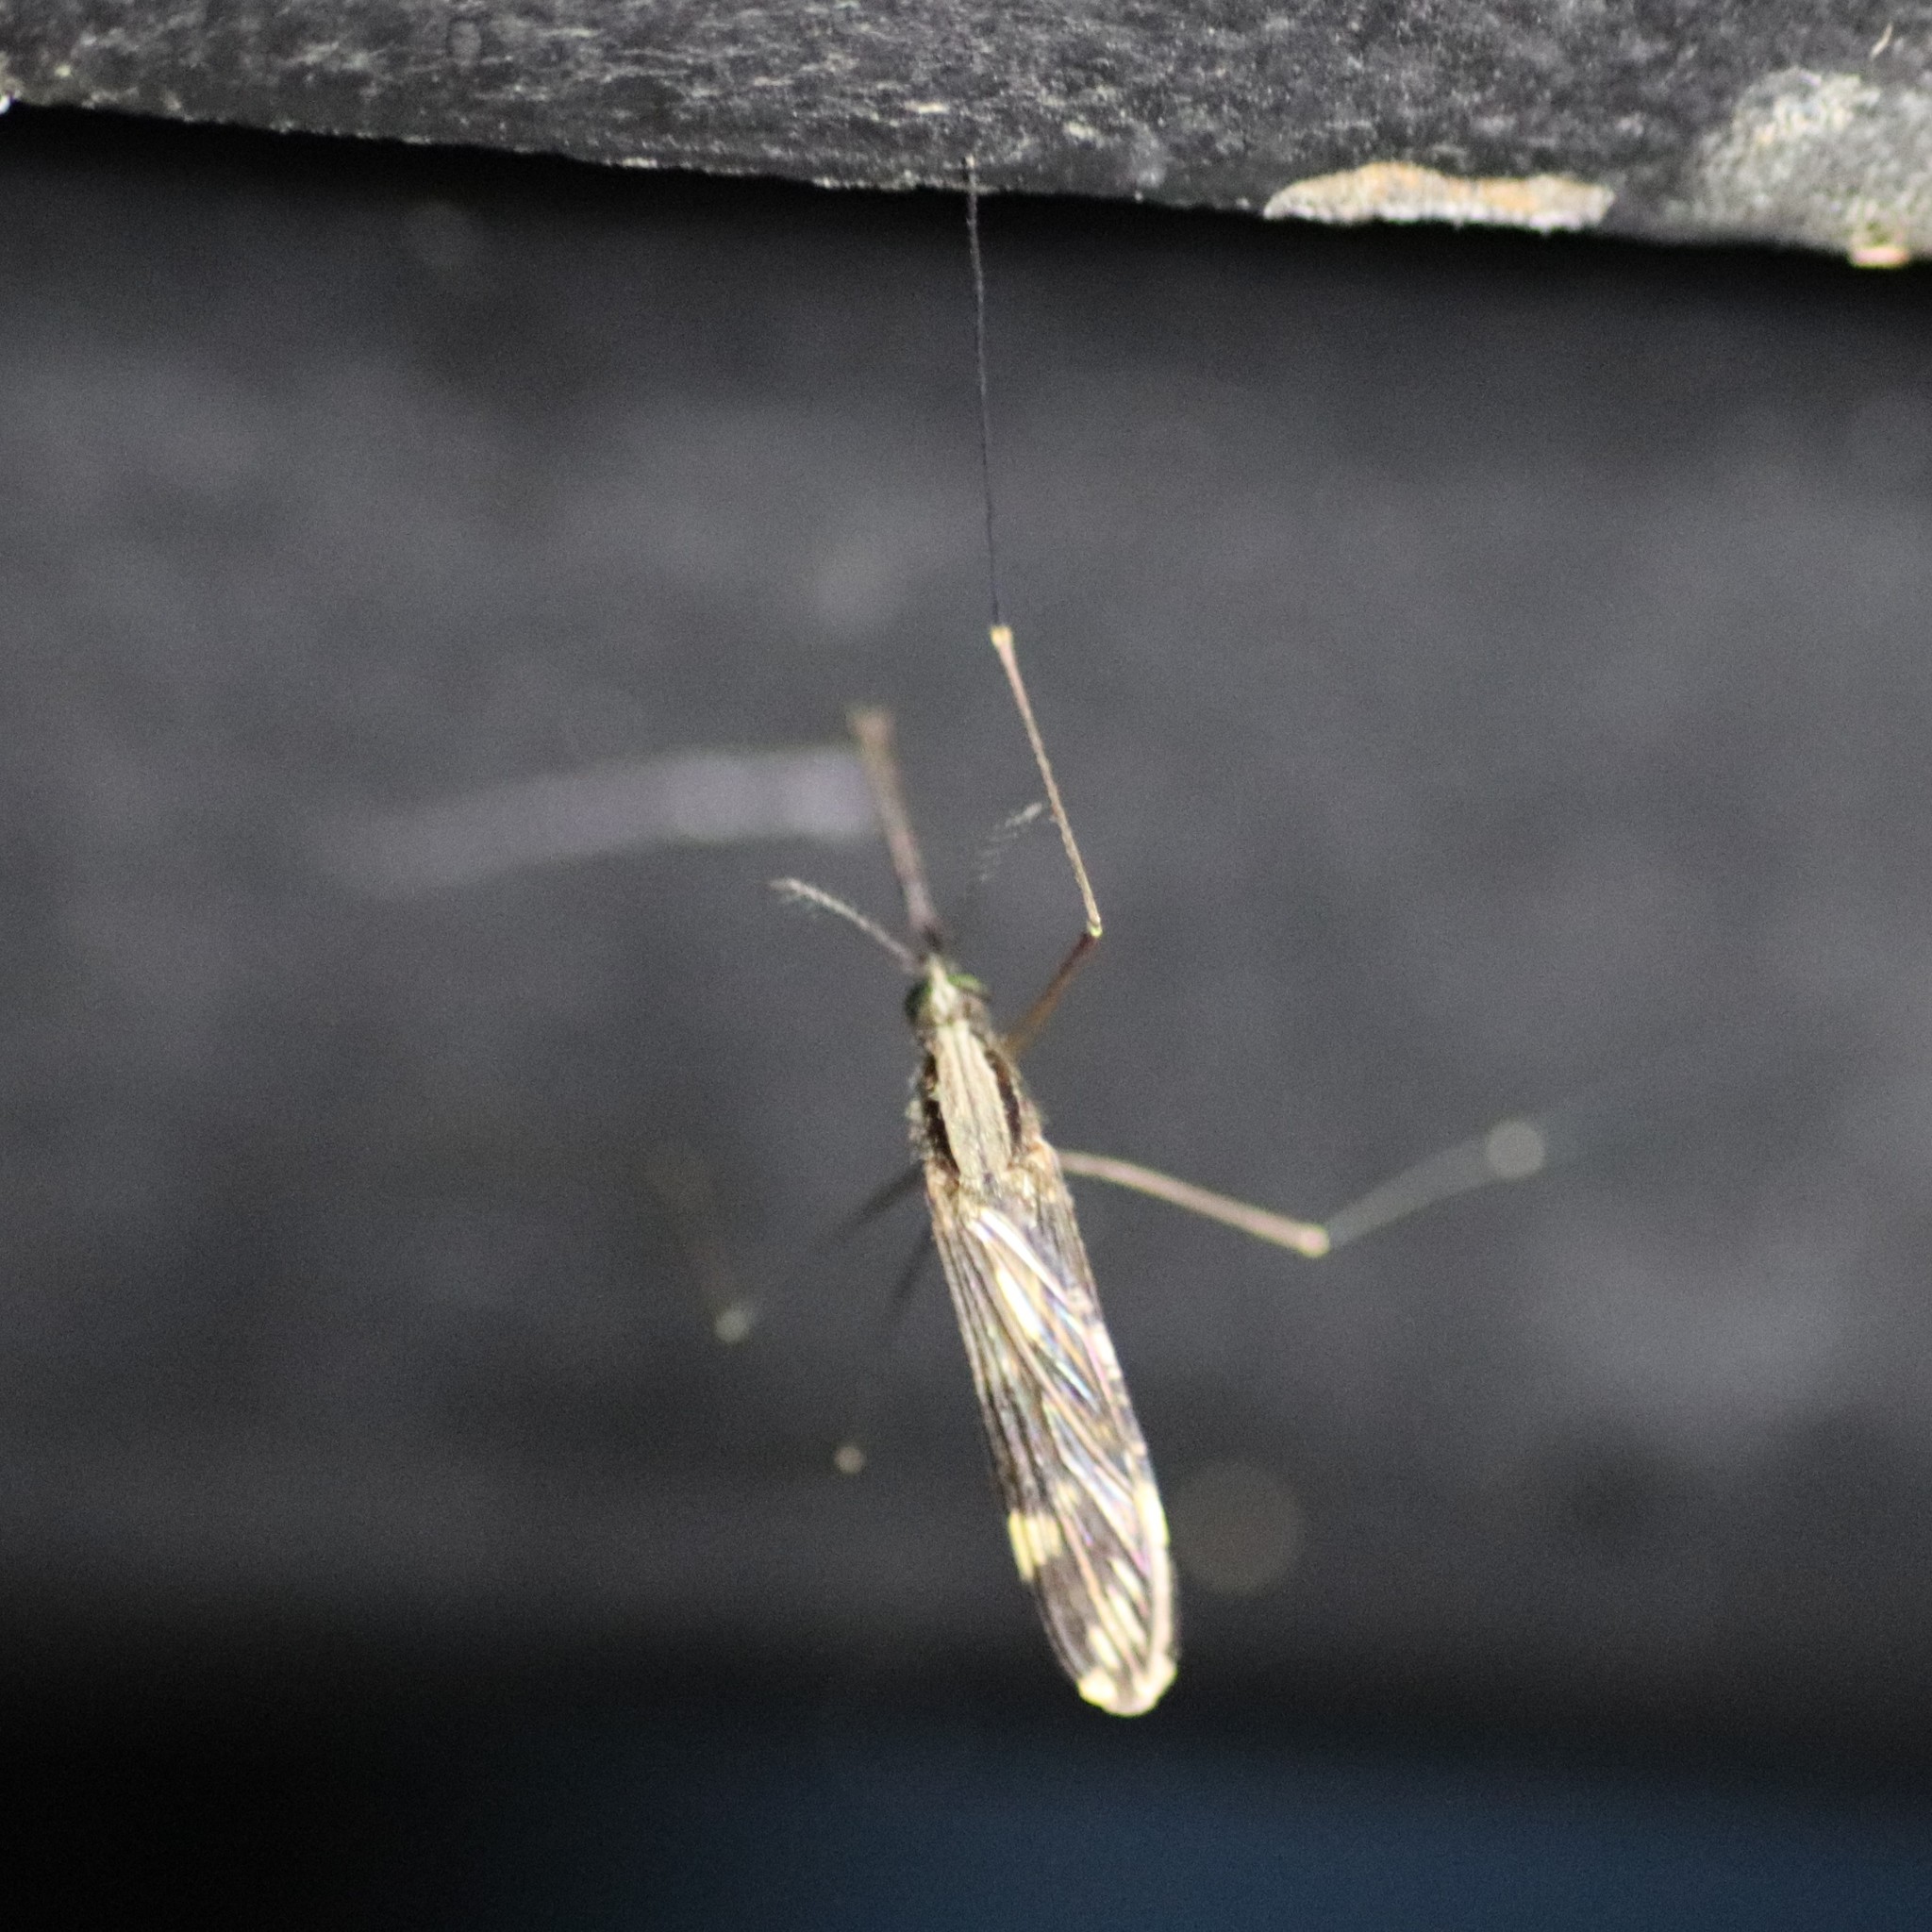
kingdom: Animalia
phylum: Arthropoda
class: Insecta
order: Diptera
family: Culicidae
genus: Anopheles
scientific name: Anopheles punctipennis
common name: Woodland malaria mosquito
